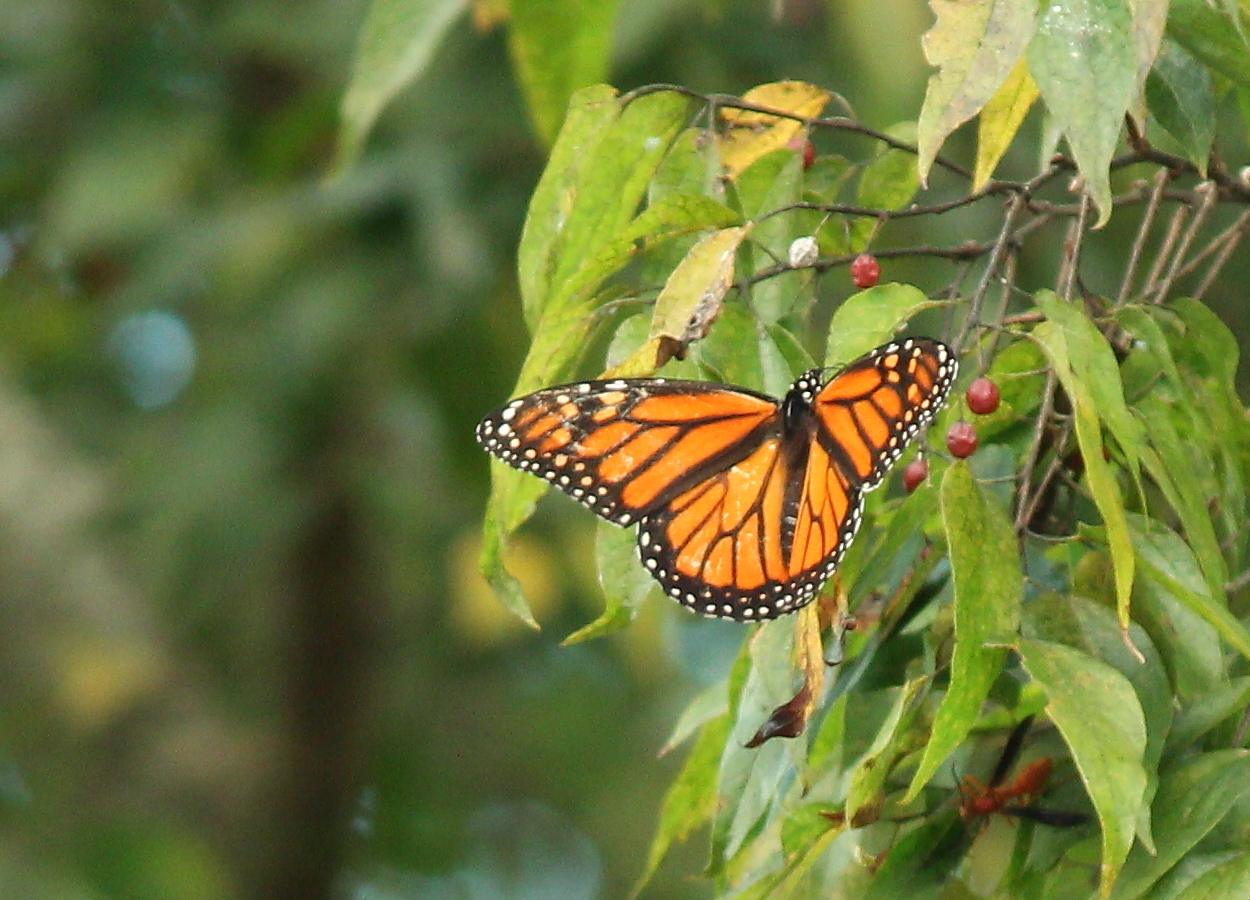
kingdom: Animalia
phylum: Arthropoda
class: Insecta
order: Lepidoptera
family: Nymphalidae
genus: Danaus
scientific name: Danaus plexippus
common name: Monarch
